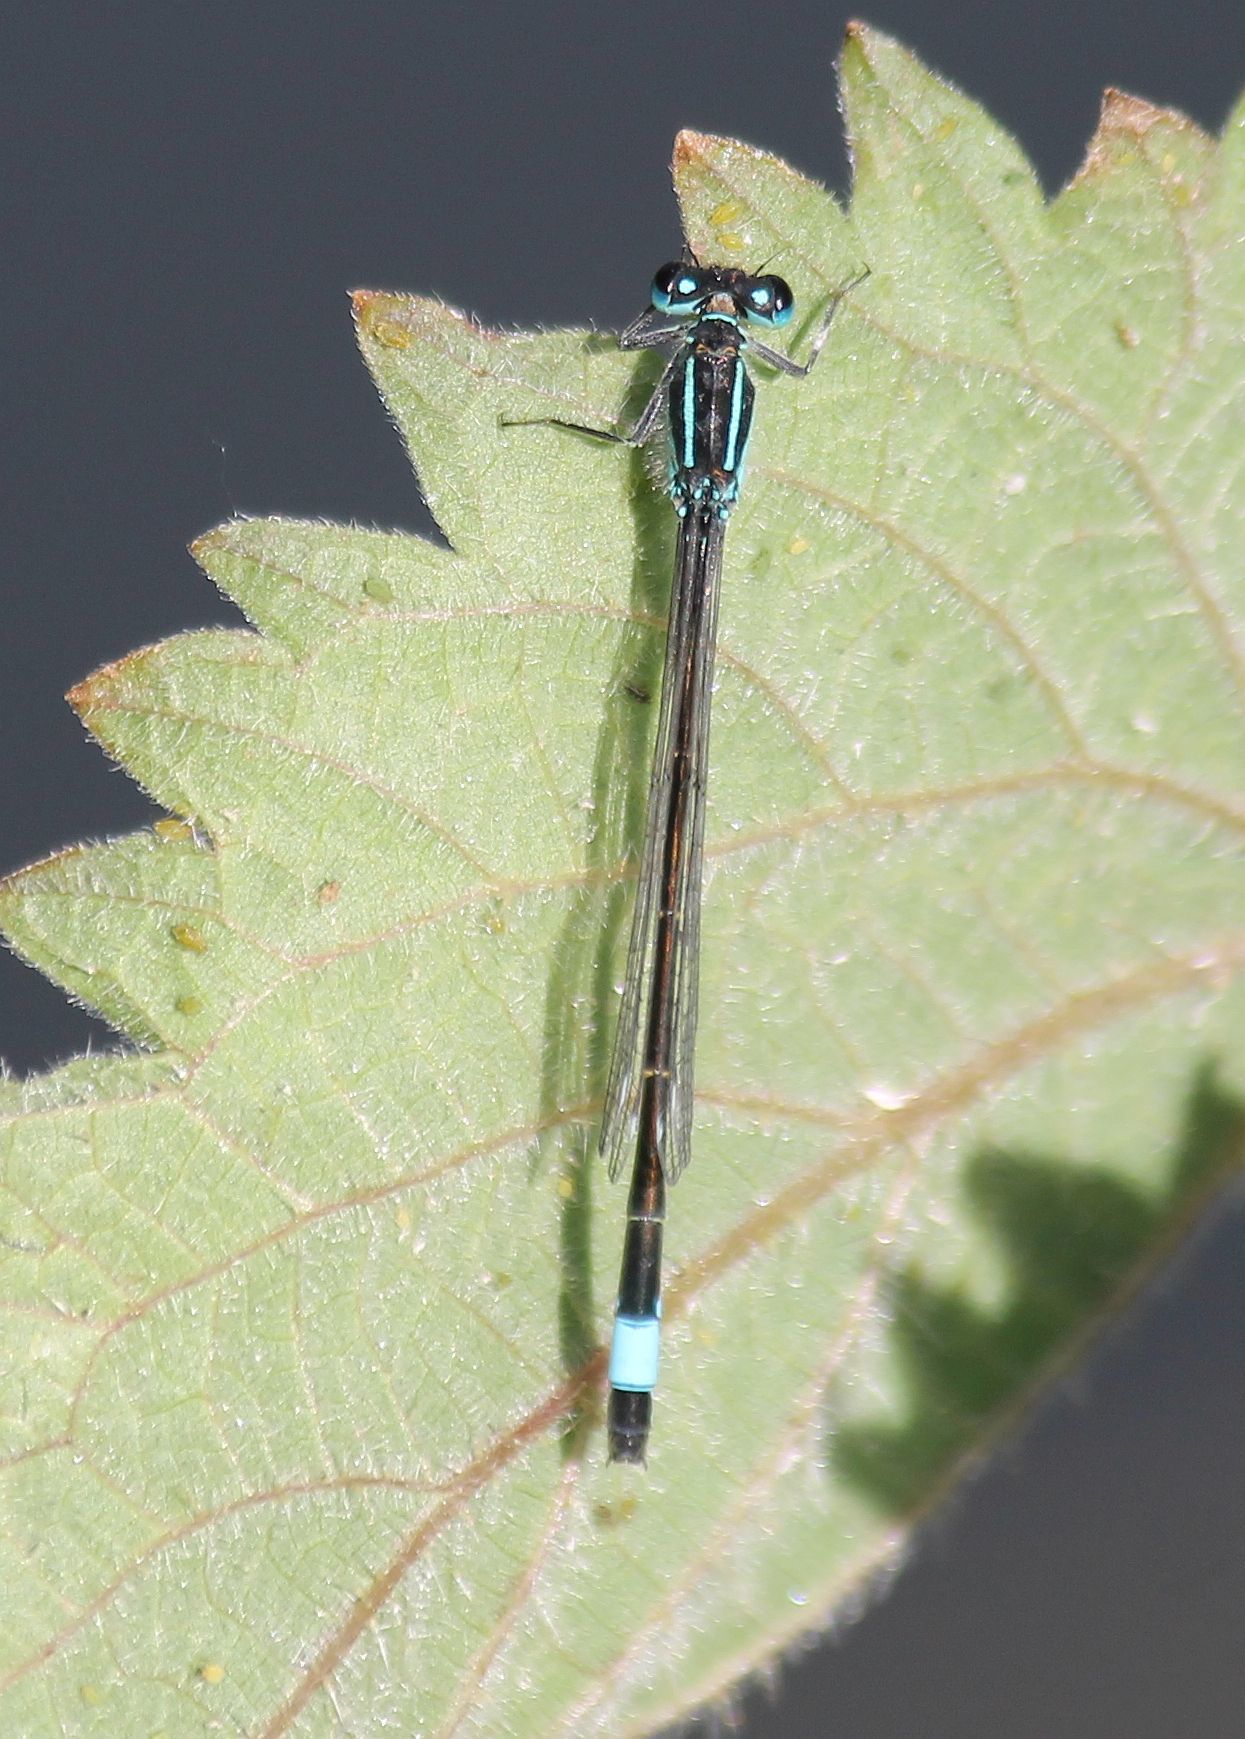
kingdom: Animalia
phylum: Arthropoda
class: Insecta
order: Odonata
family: Coenagrionidae
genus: Ischnura
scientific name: Ischnura elegans
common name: Blue-tailed damselfly
